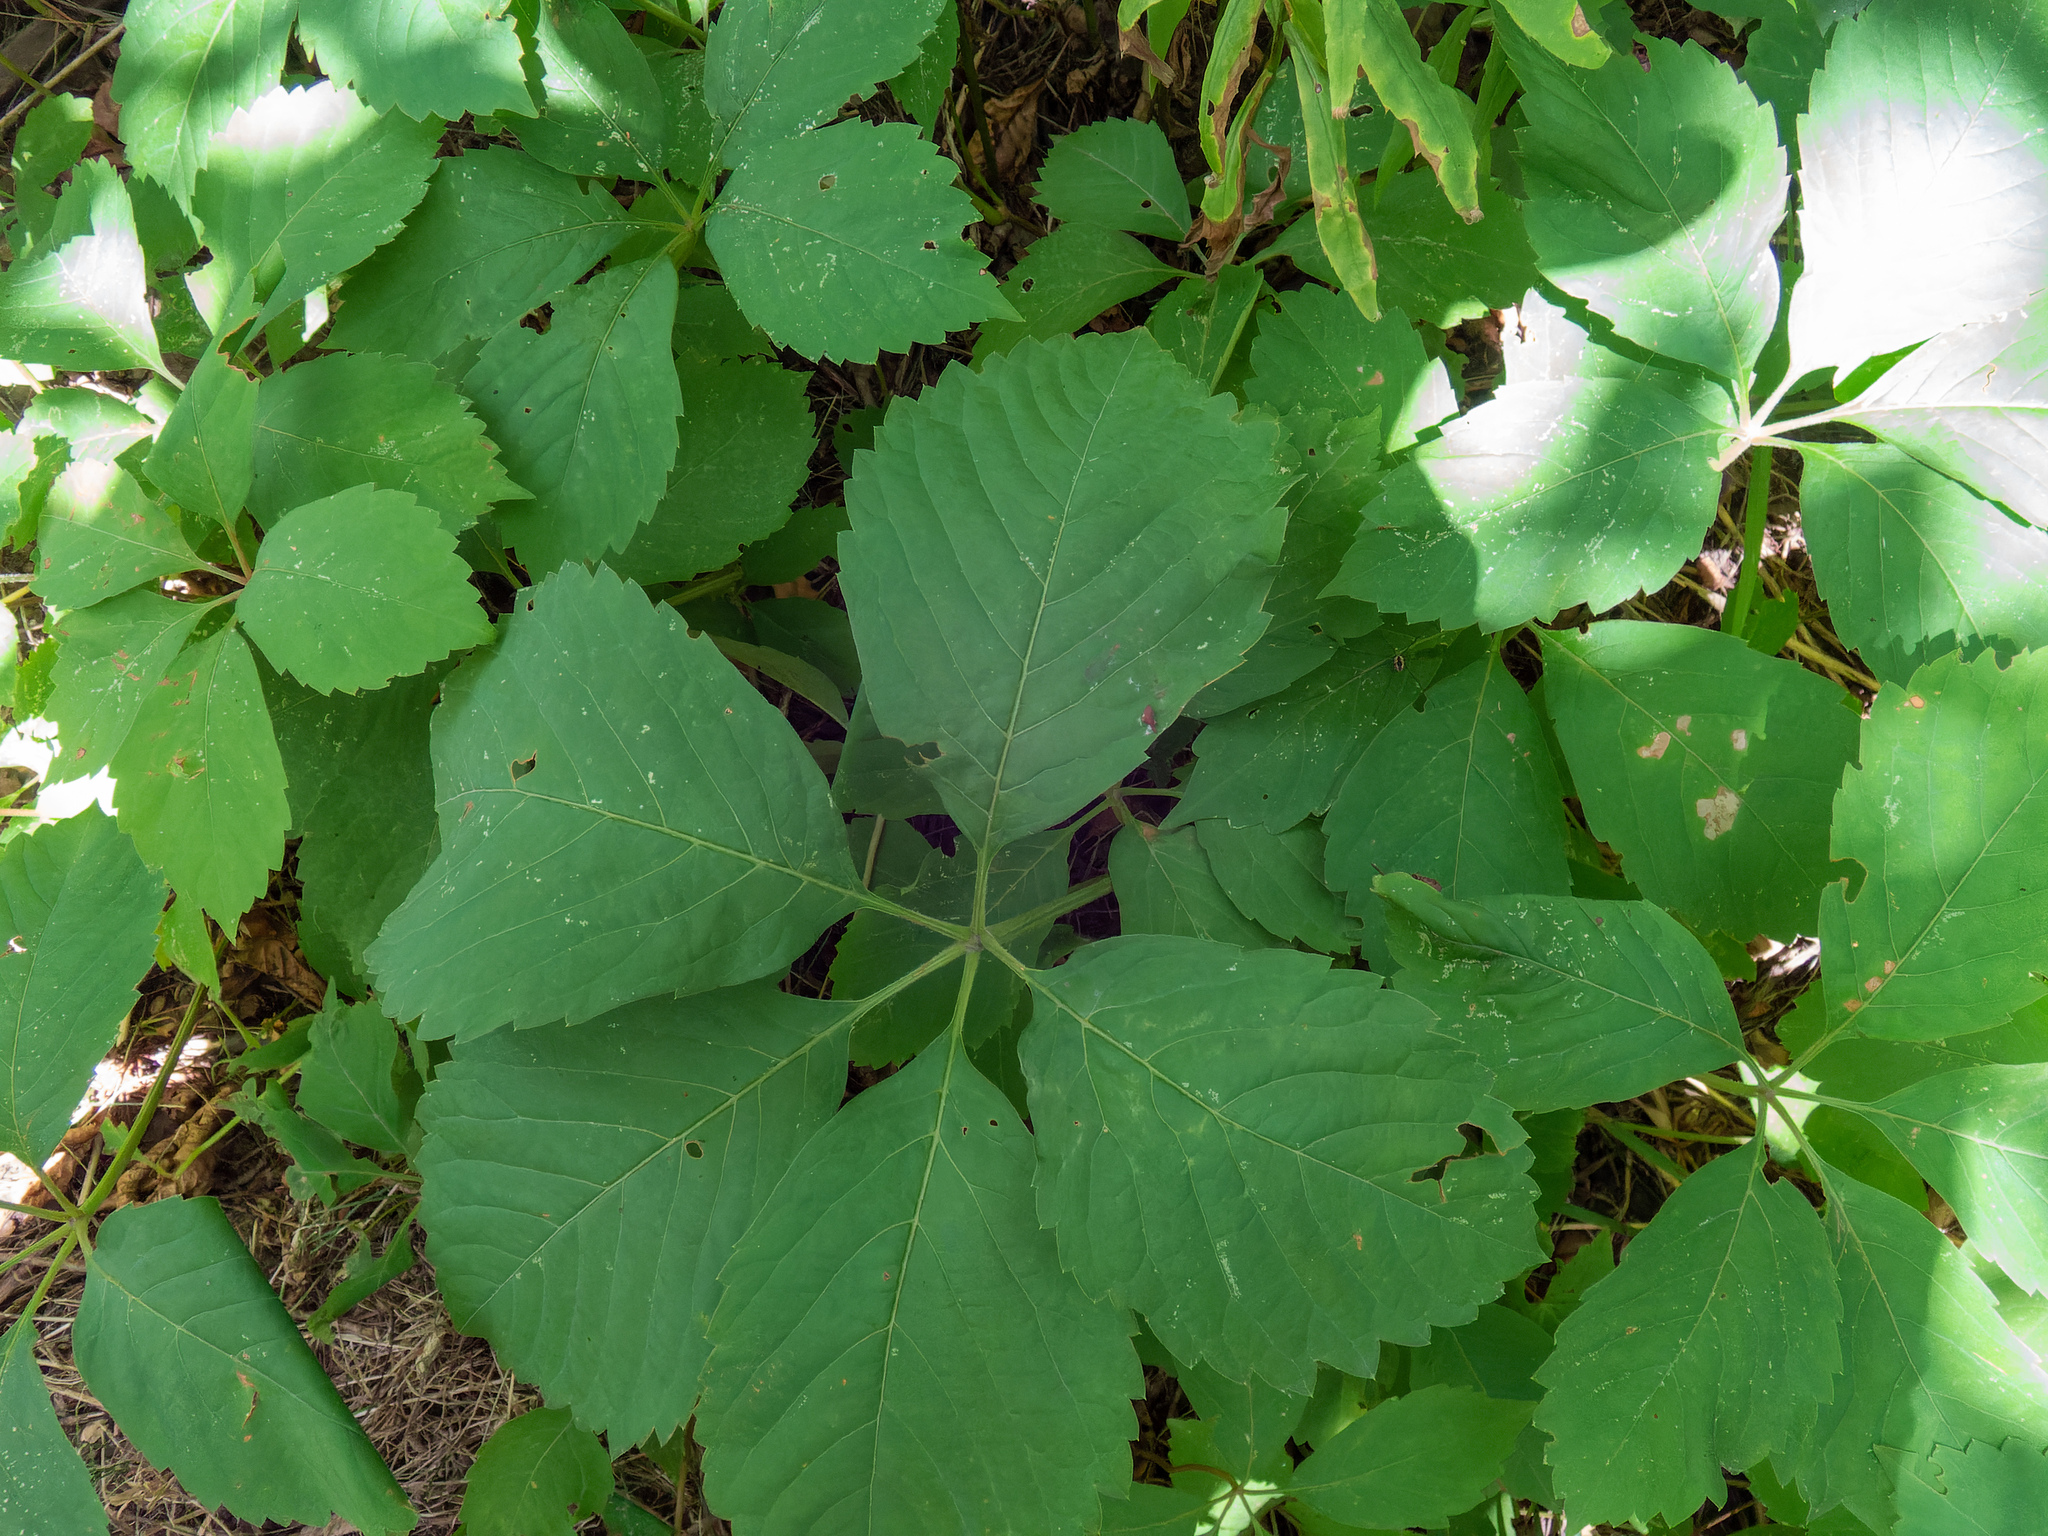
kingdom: Plantae
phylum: Tracheophyta
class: Magnoliopsida
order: Vitales
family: Vitaceae
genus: Parthenocissus
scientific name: Parthenocissus inserta
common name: False virginia-creeper
